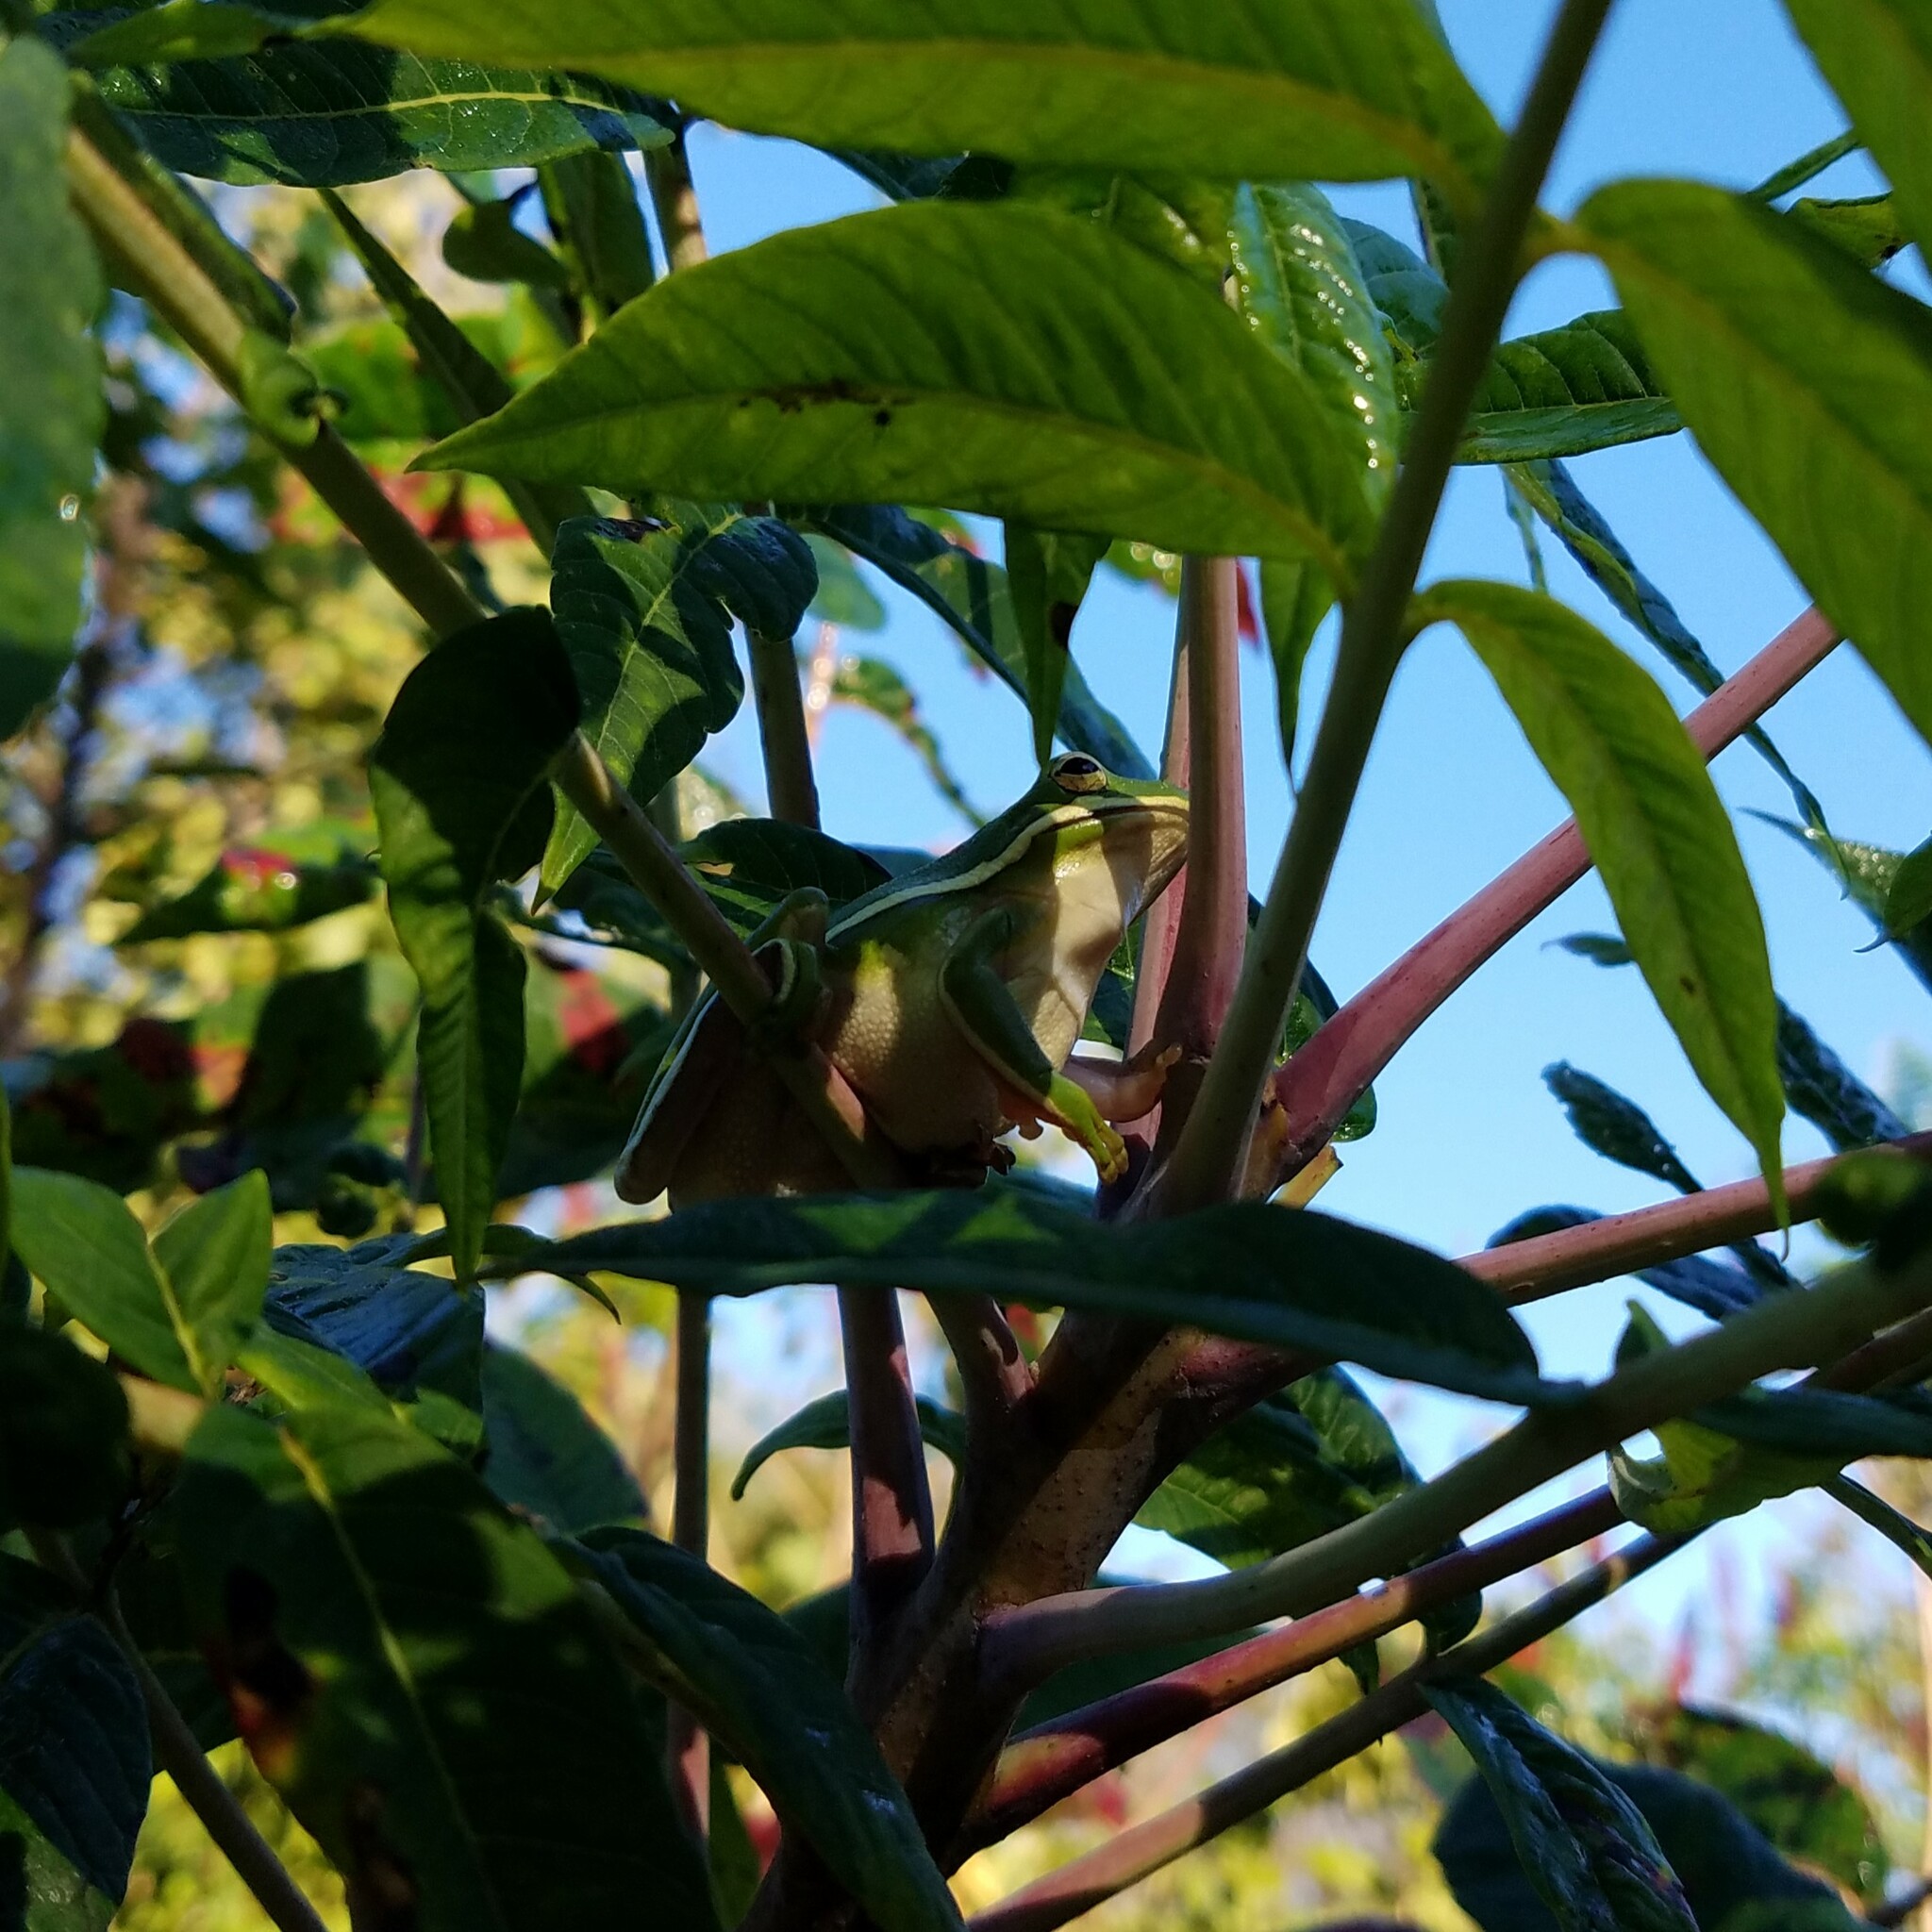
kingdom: Animalia
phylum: Chordata
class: Amphibia
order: Anura
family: Hylidae
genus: Dryophytes
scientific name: Dryophytes cinereus
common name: Green treefrog
